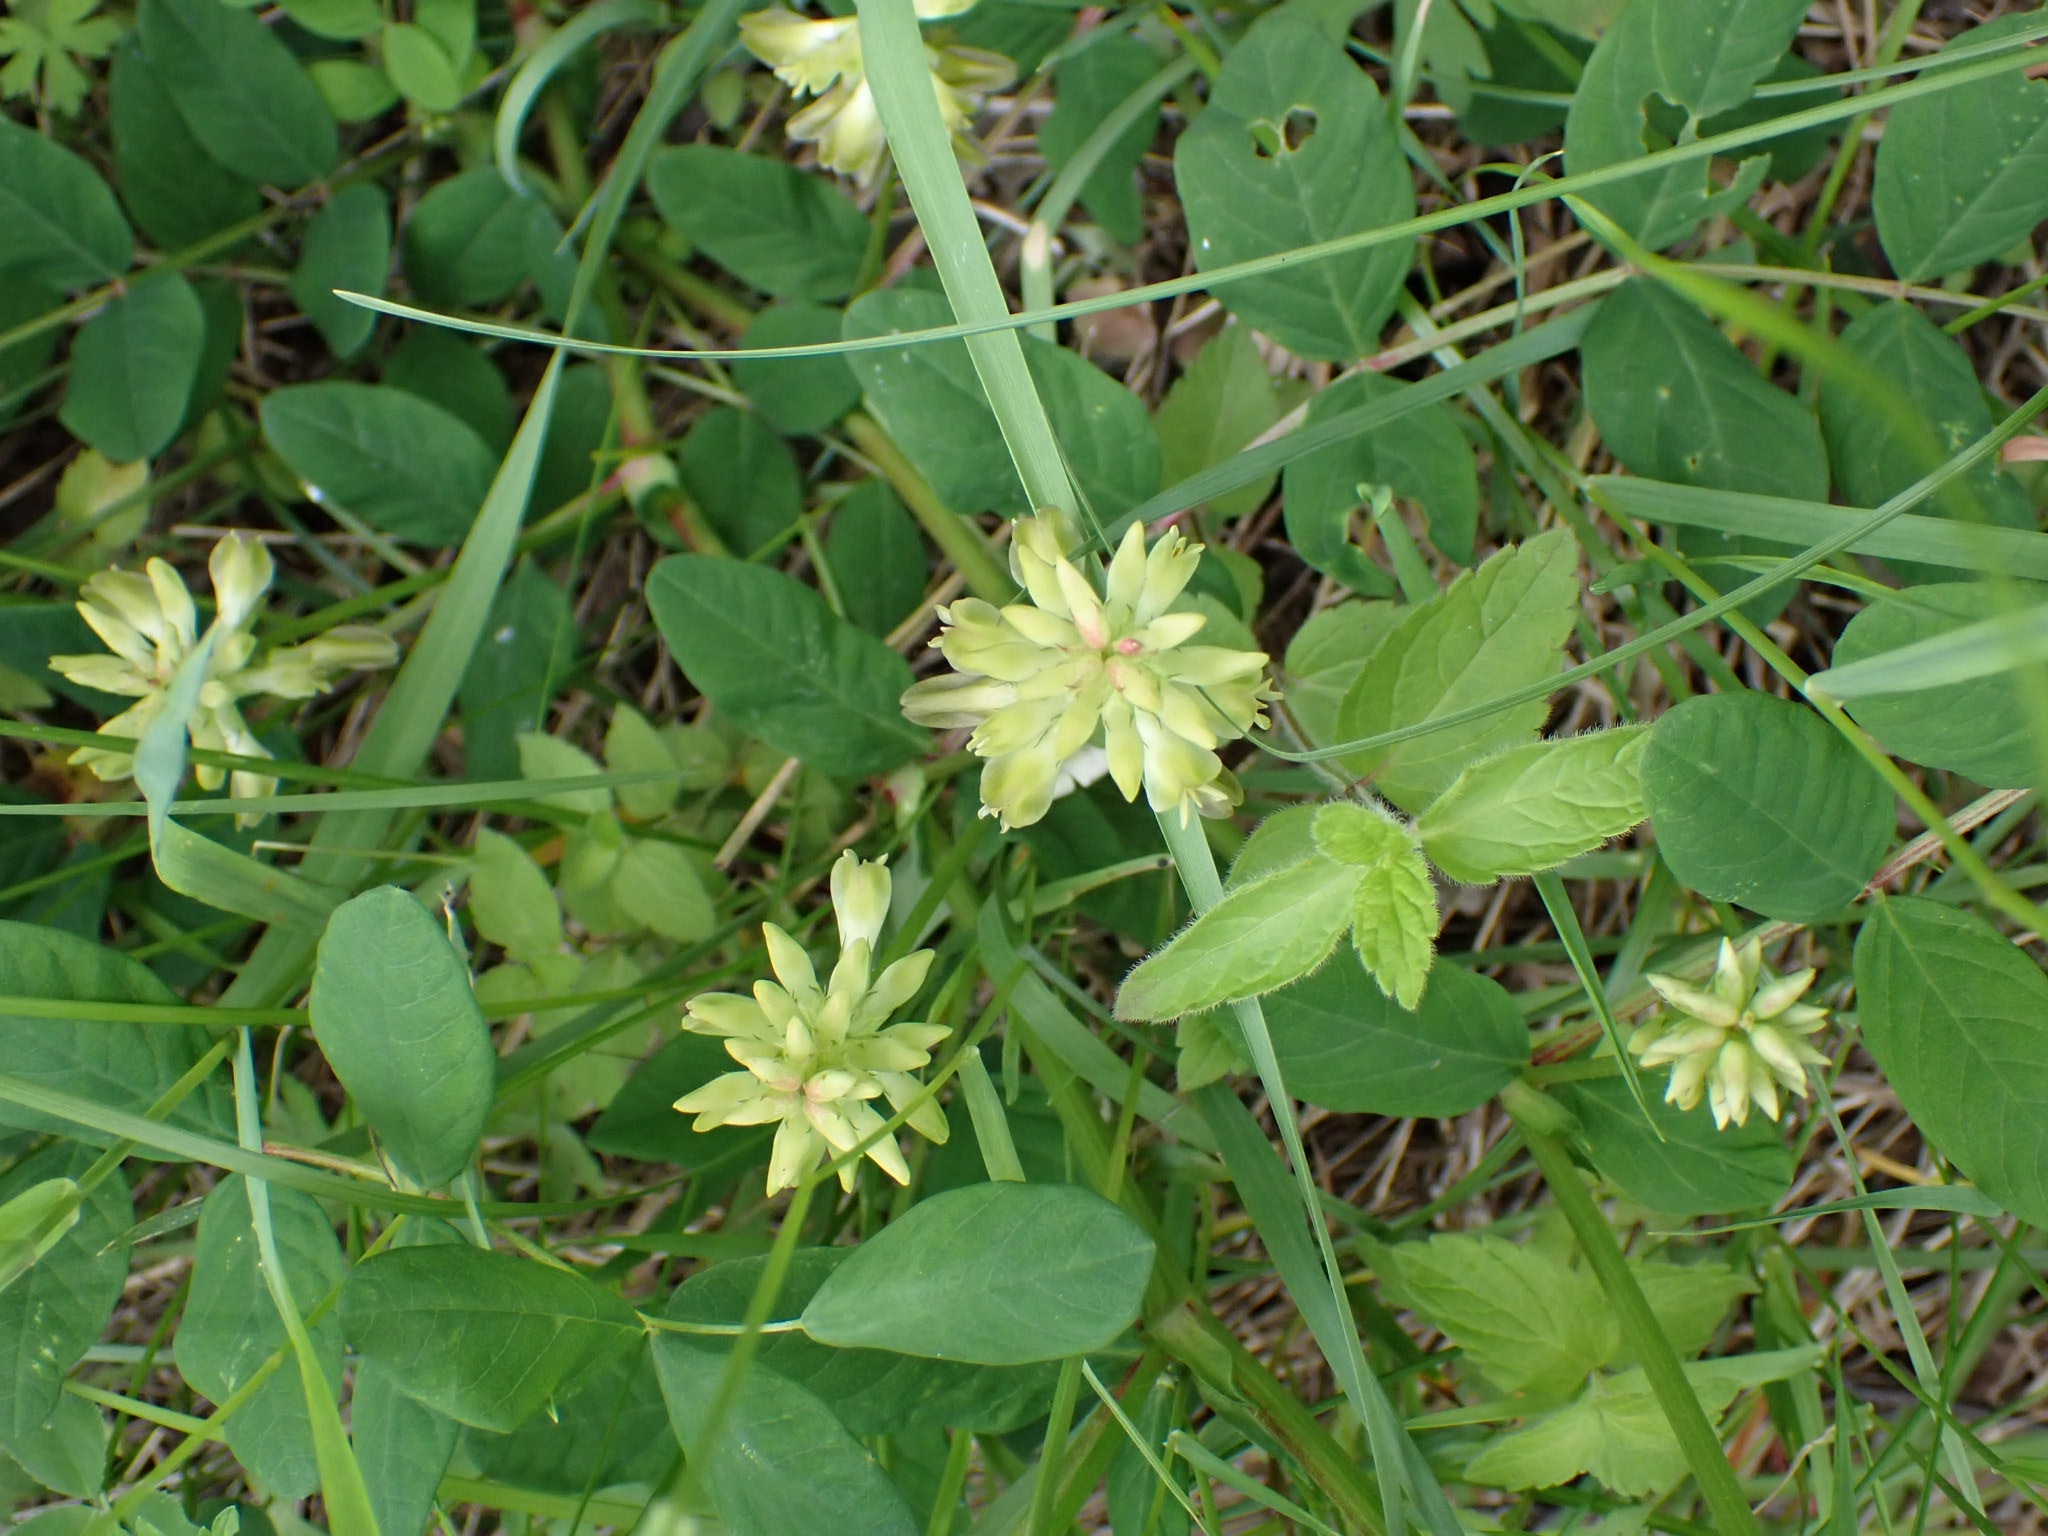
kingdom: Plantae
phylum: Tracheophyta
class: Magnoliopsida
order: Fabales
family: Fabaceae
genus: Astragalus
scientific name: Astragalus glycyphyllos
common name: Wild liquorice
